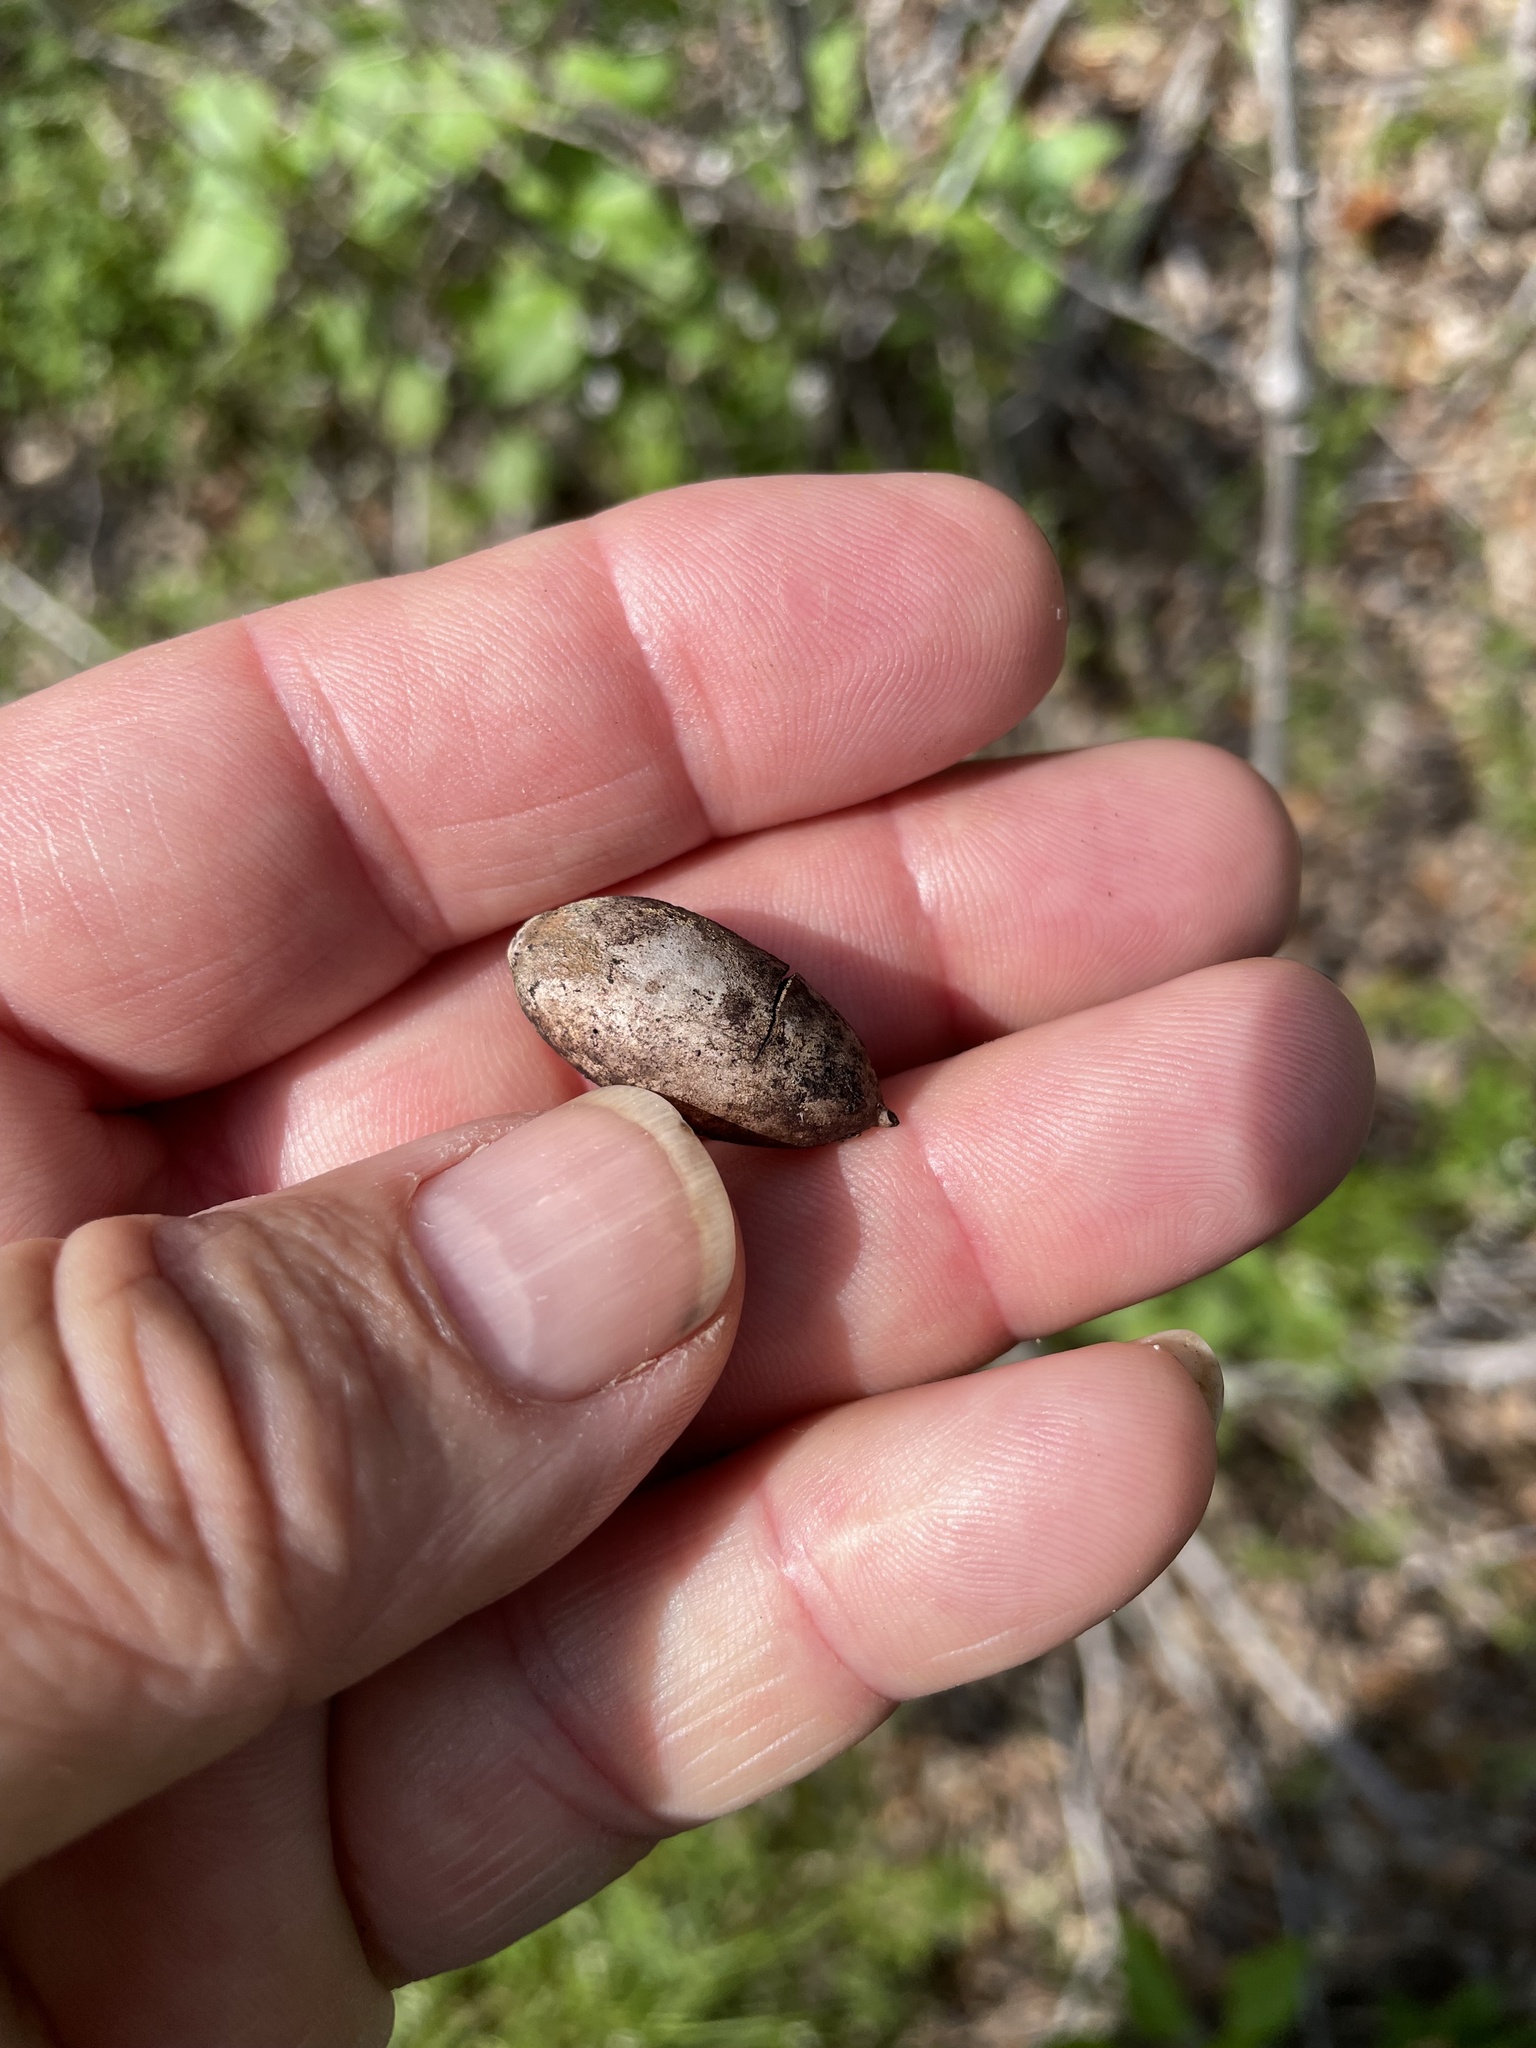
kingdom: Plantae
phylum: Tracheophyta
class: Magnoliopsida
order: Fagales
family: Fagaceae
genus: Quercus
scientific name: Quercus fusiformis
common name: Texas live oak
